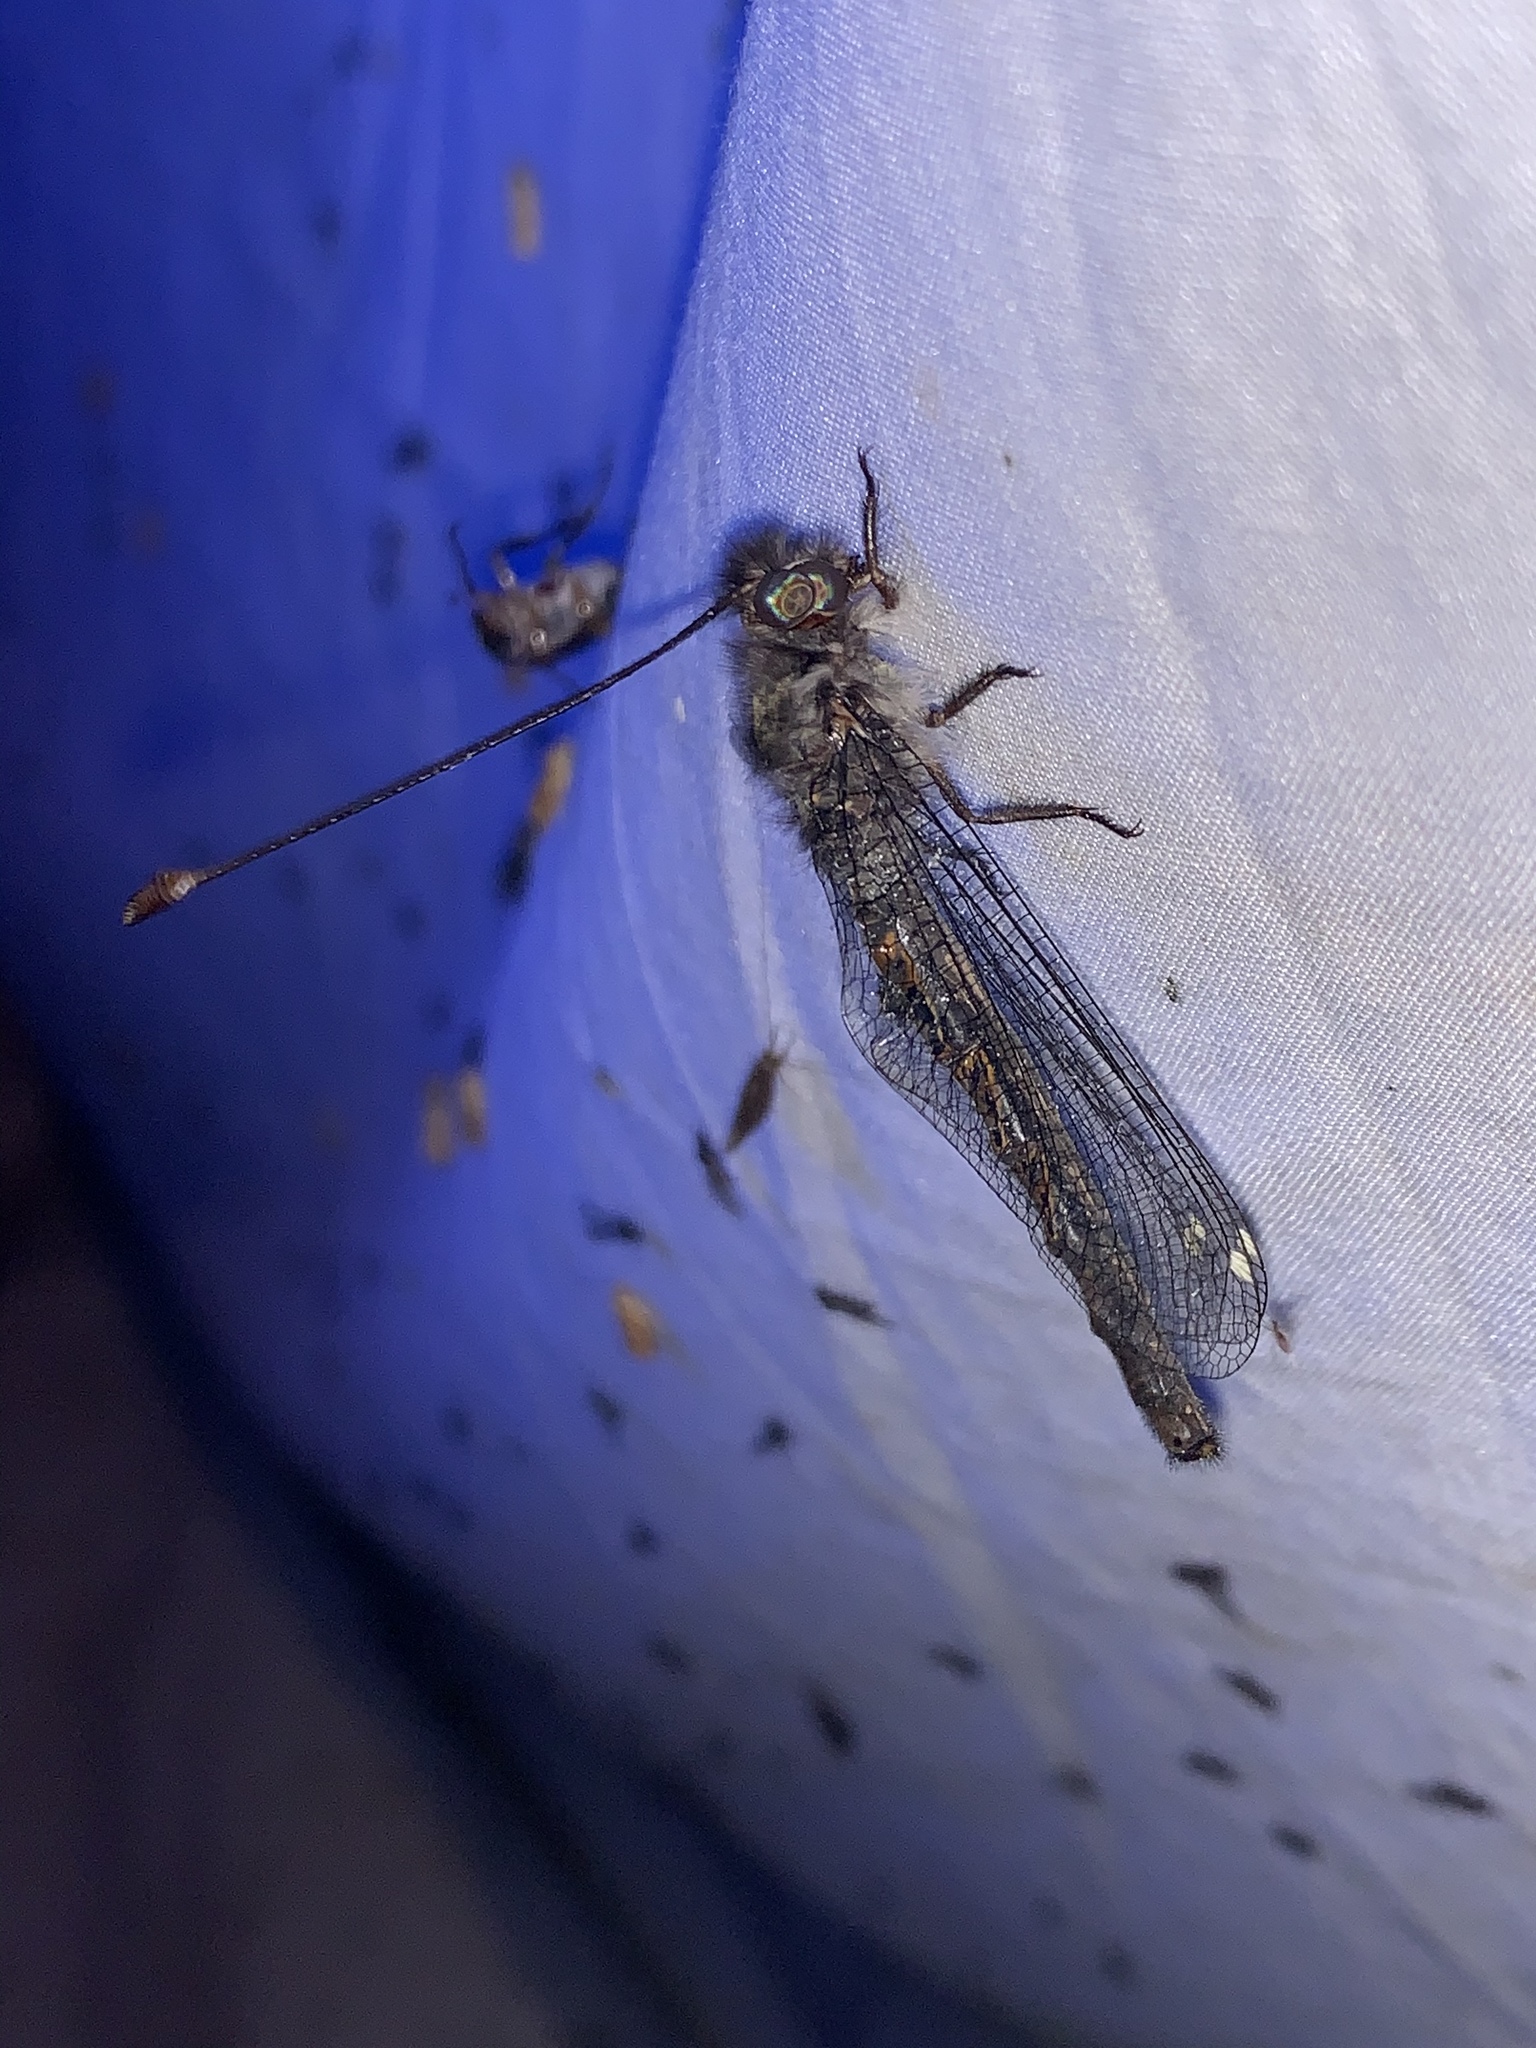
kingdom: Animalia
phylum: Arthropoda
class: Insecta
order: Neuroptera
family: Ascalaphidae
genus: Ululodes
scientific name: Ululodes quadripunctatus
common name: Four-spotted owlfly
